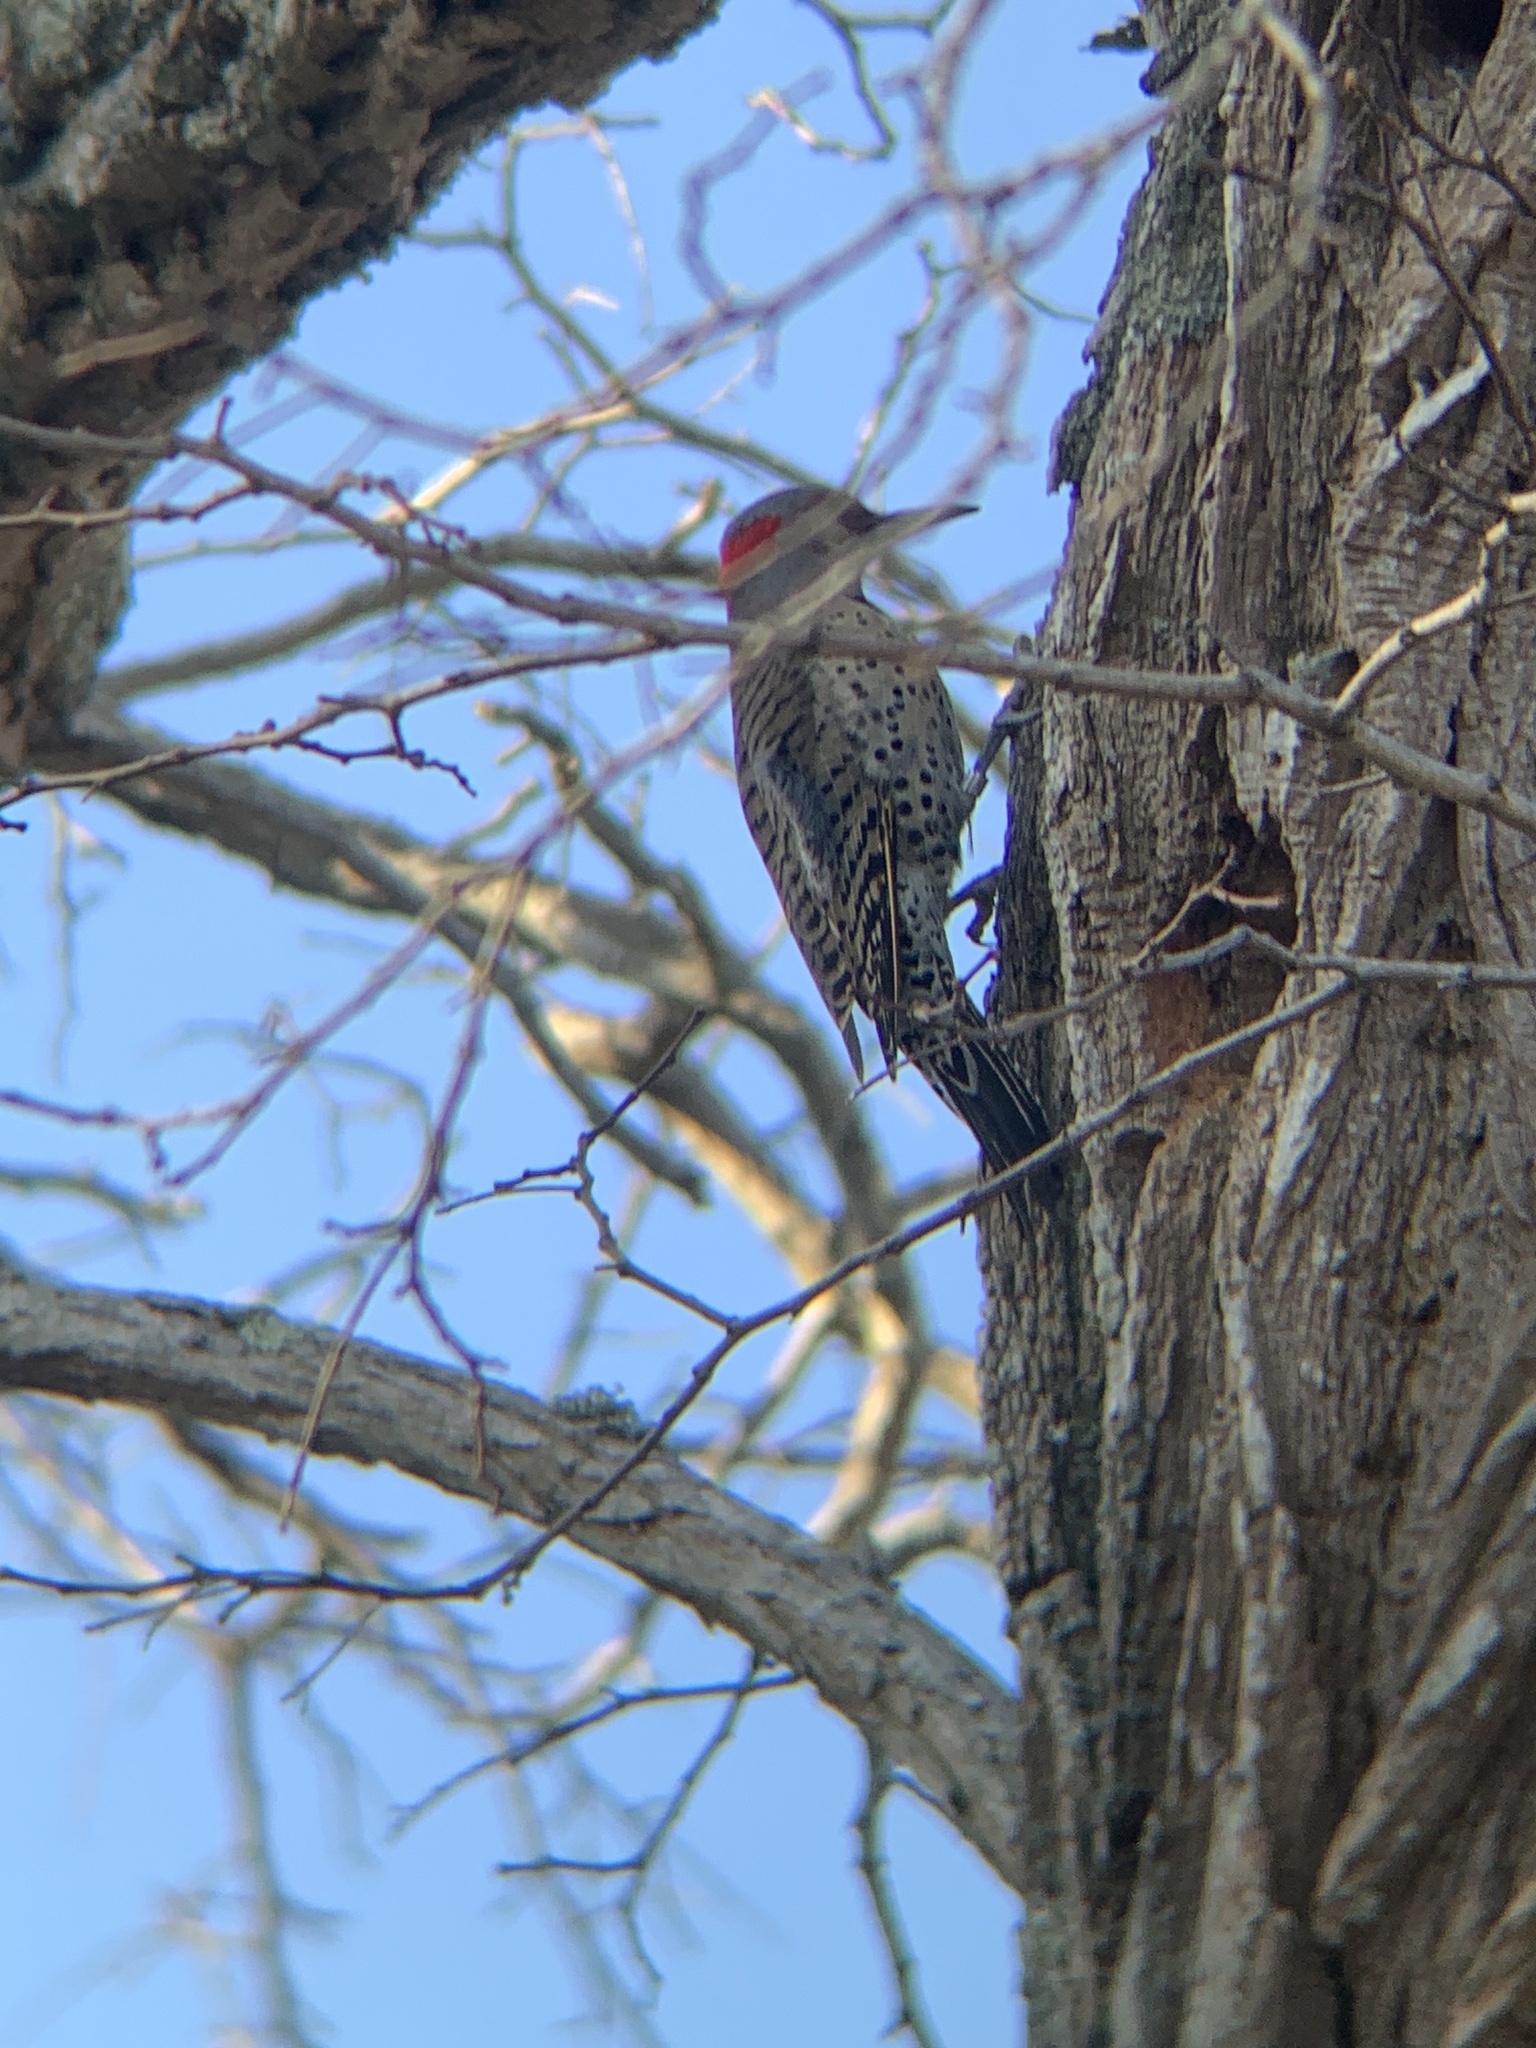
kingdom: Animalia
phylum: Chordata
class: Aves
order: Piciformes
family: Picidae
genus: Colaptes
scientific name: Colaptes auratus
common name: Northern flicker
